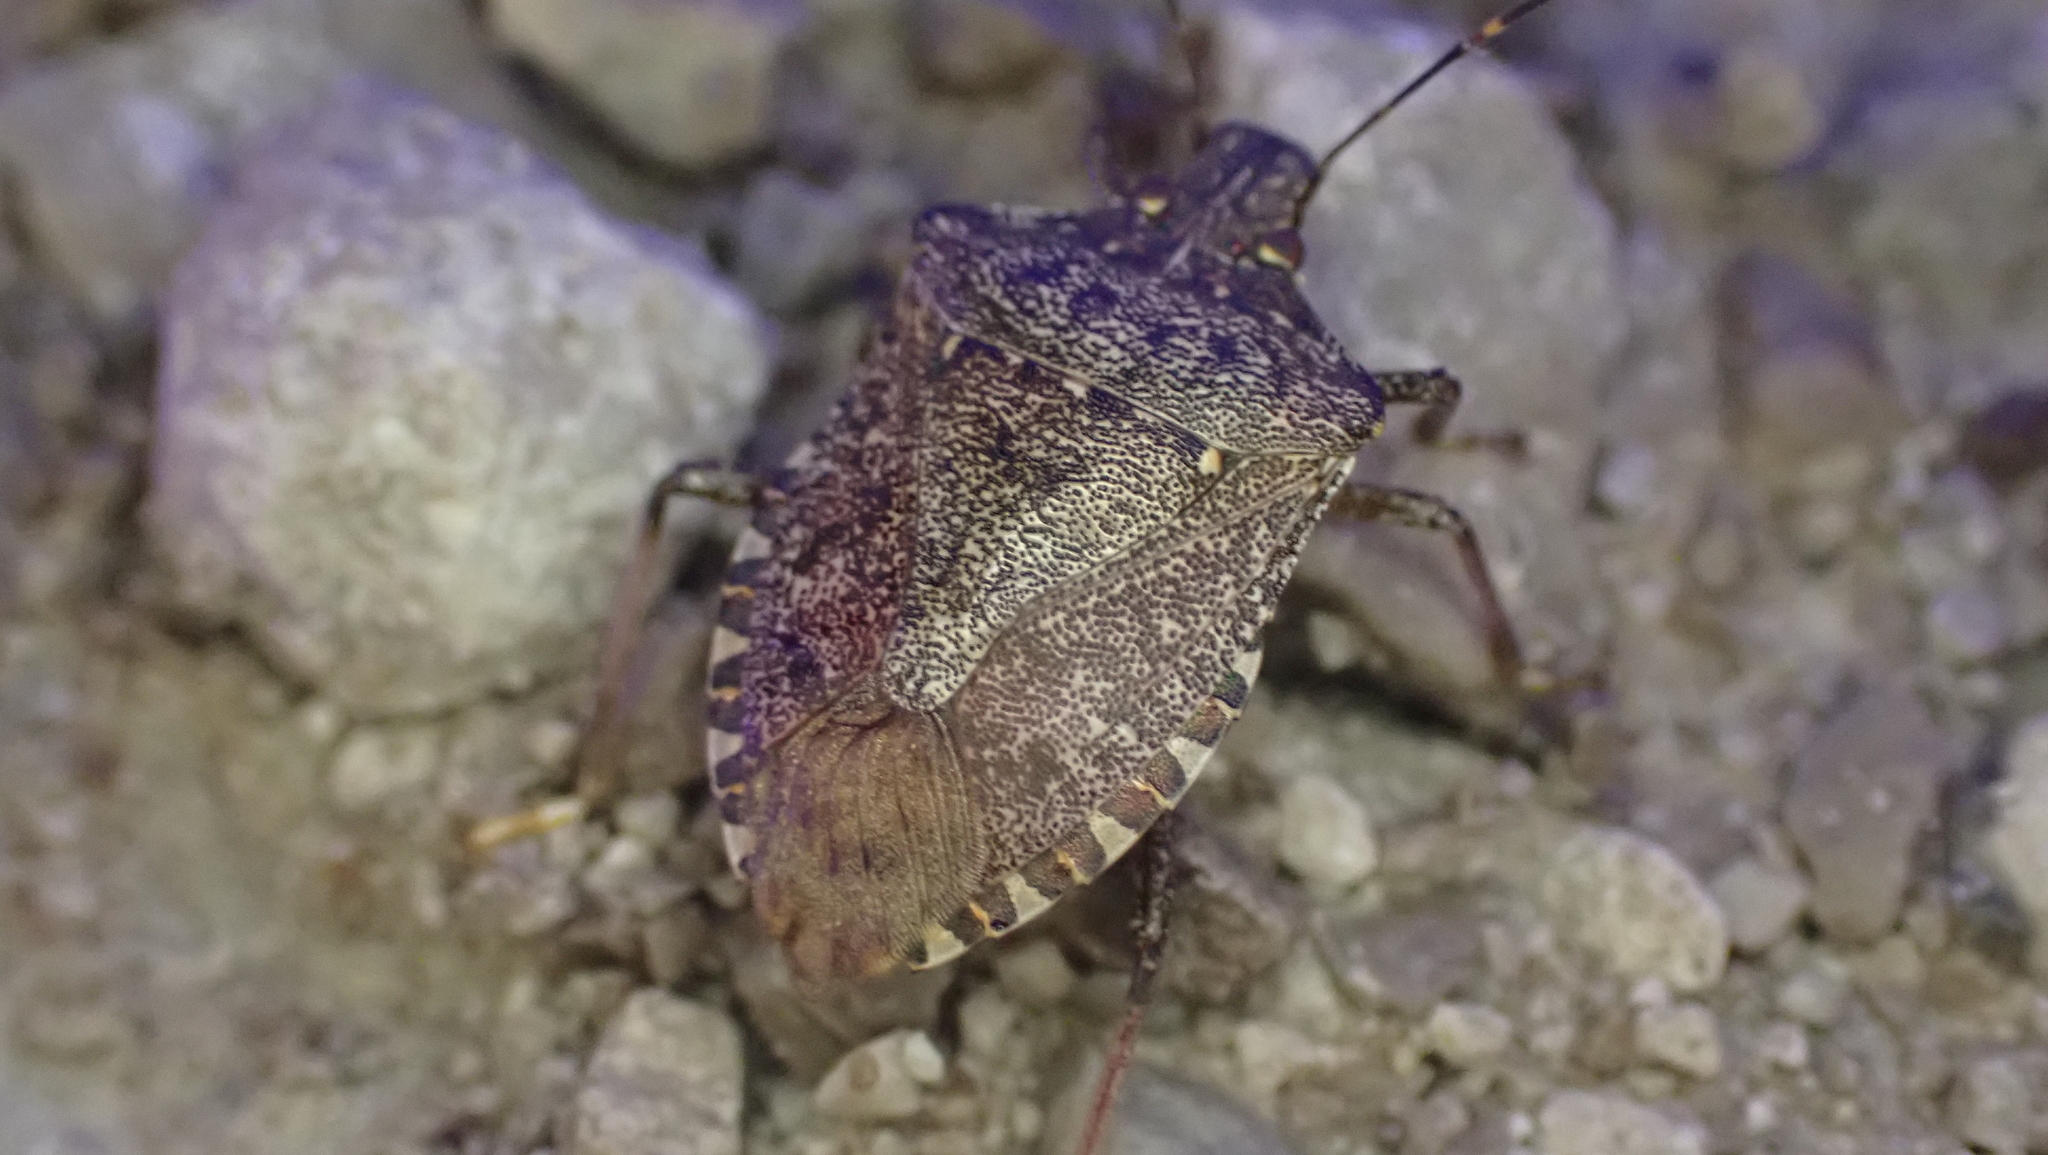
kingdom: Animalia
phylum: Arthropoda
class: Insecta
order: Hemiptera
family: Pentatomidae
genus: Halyomorpha
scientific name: Halyomorpha halys
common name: Brown marmorated stink bug
